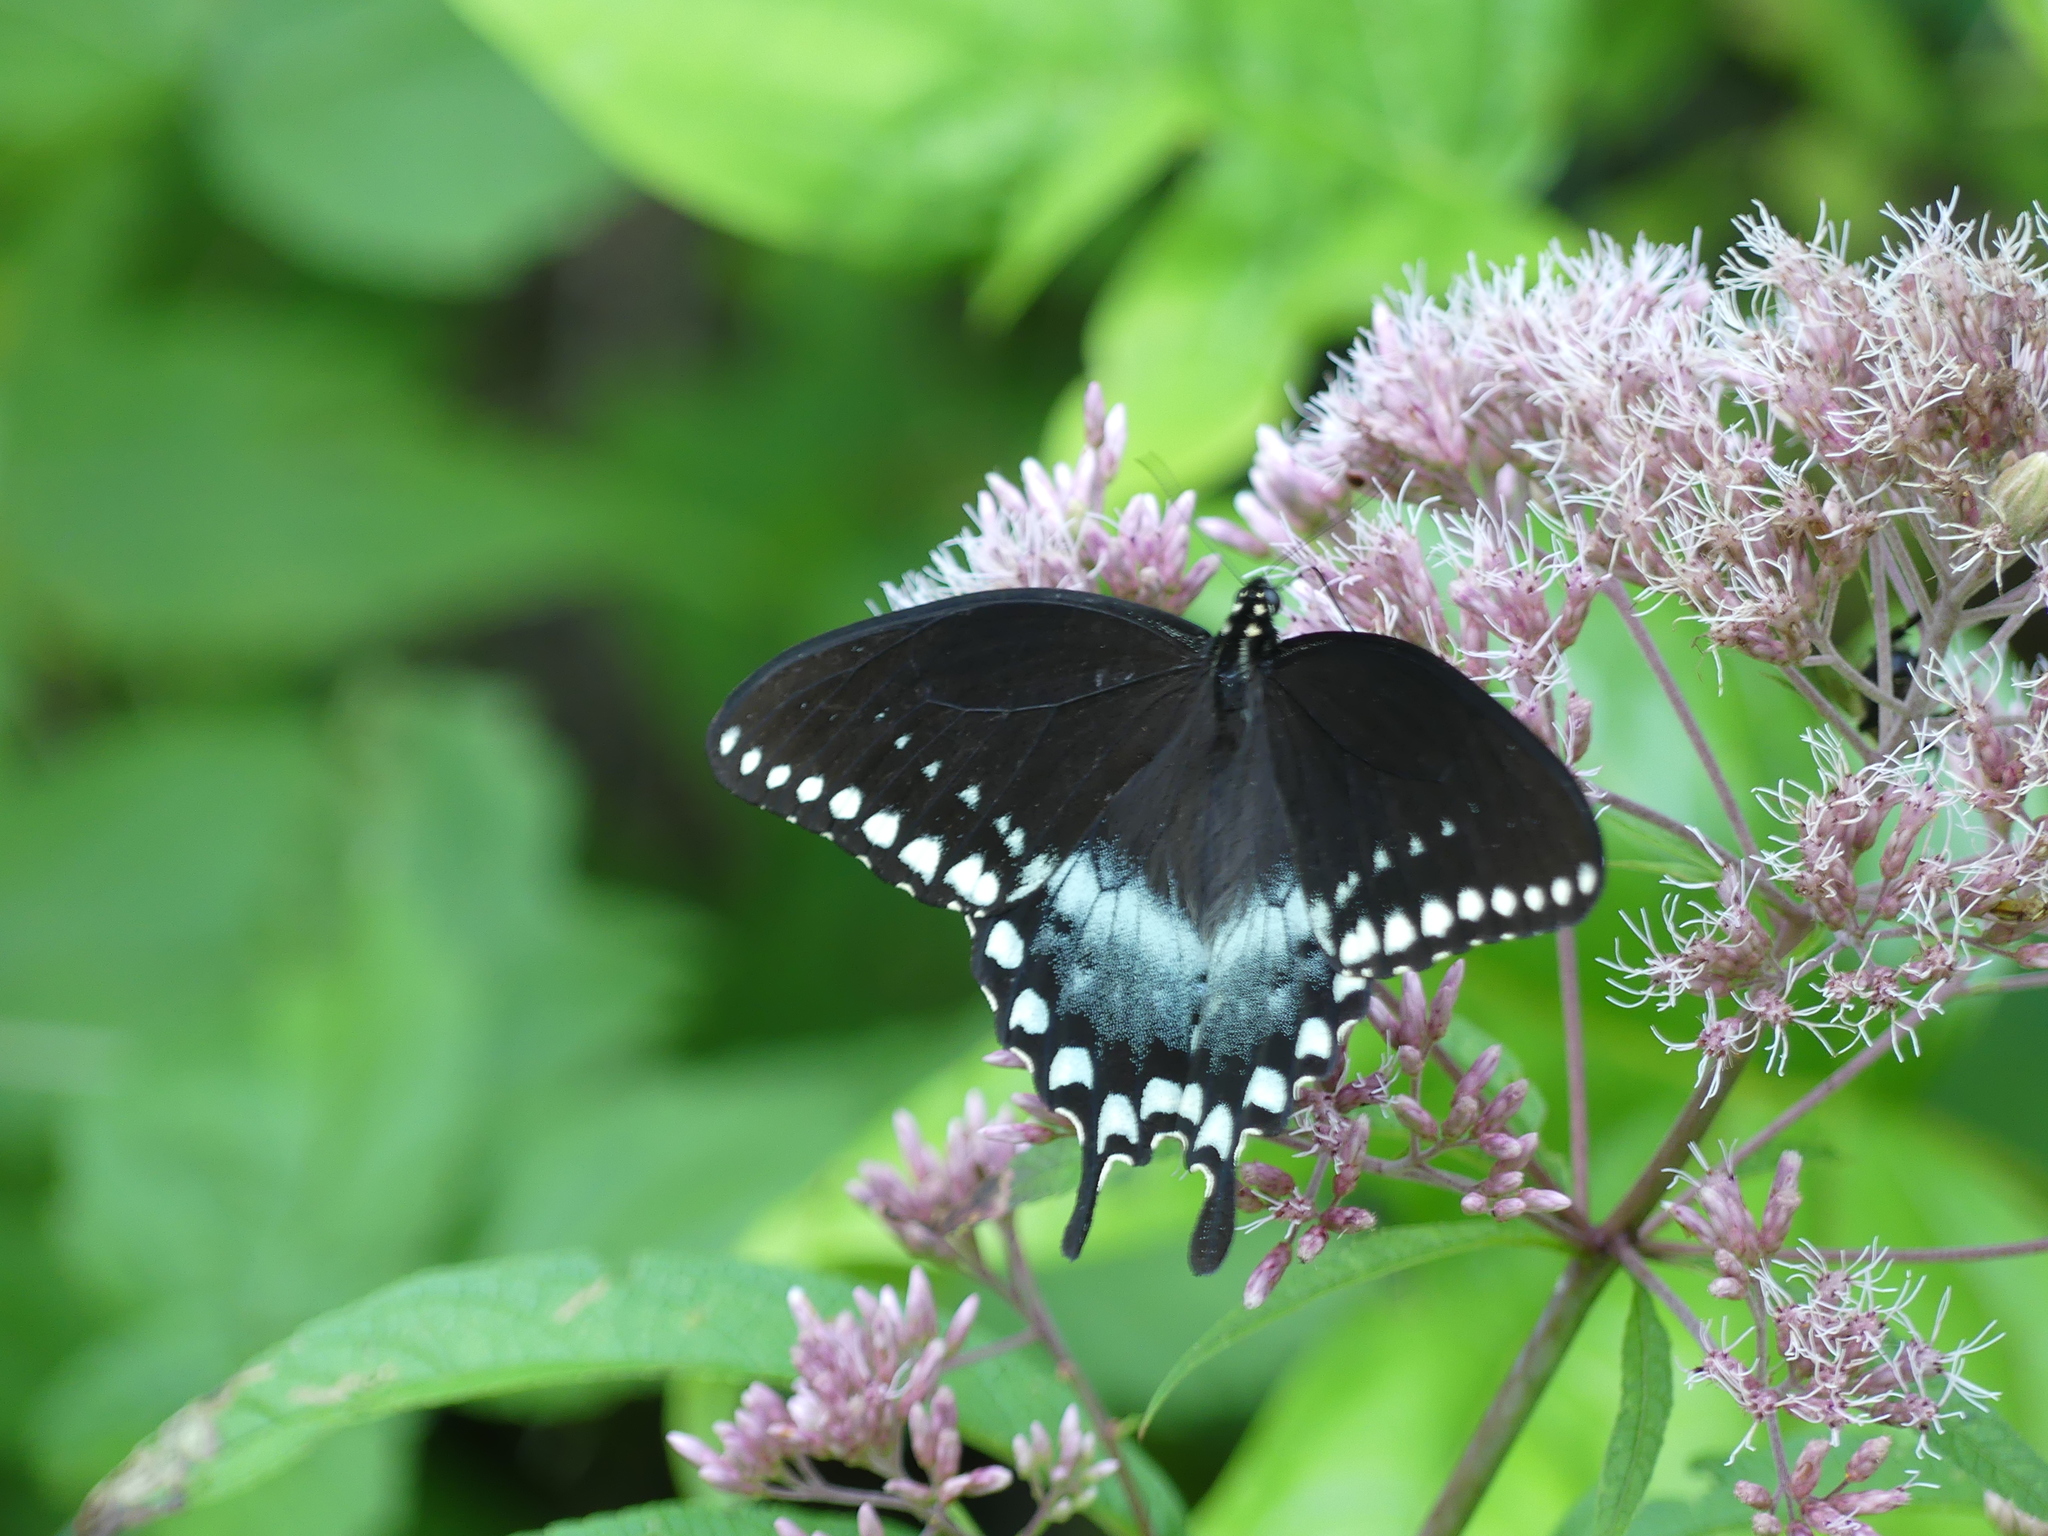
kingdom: Animalia
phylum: Arthropoda
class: Insecta
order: Lepidoptera
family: Papilionidae
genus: Papilio
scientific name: Papilio troilus
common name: Spicebush swallowtail
